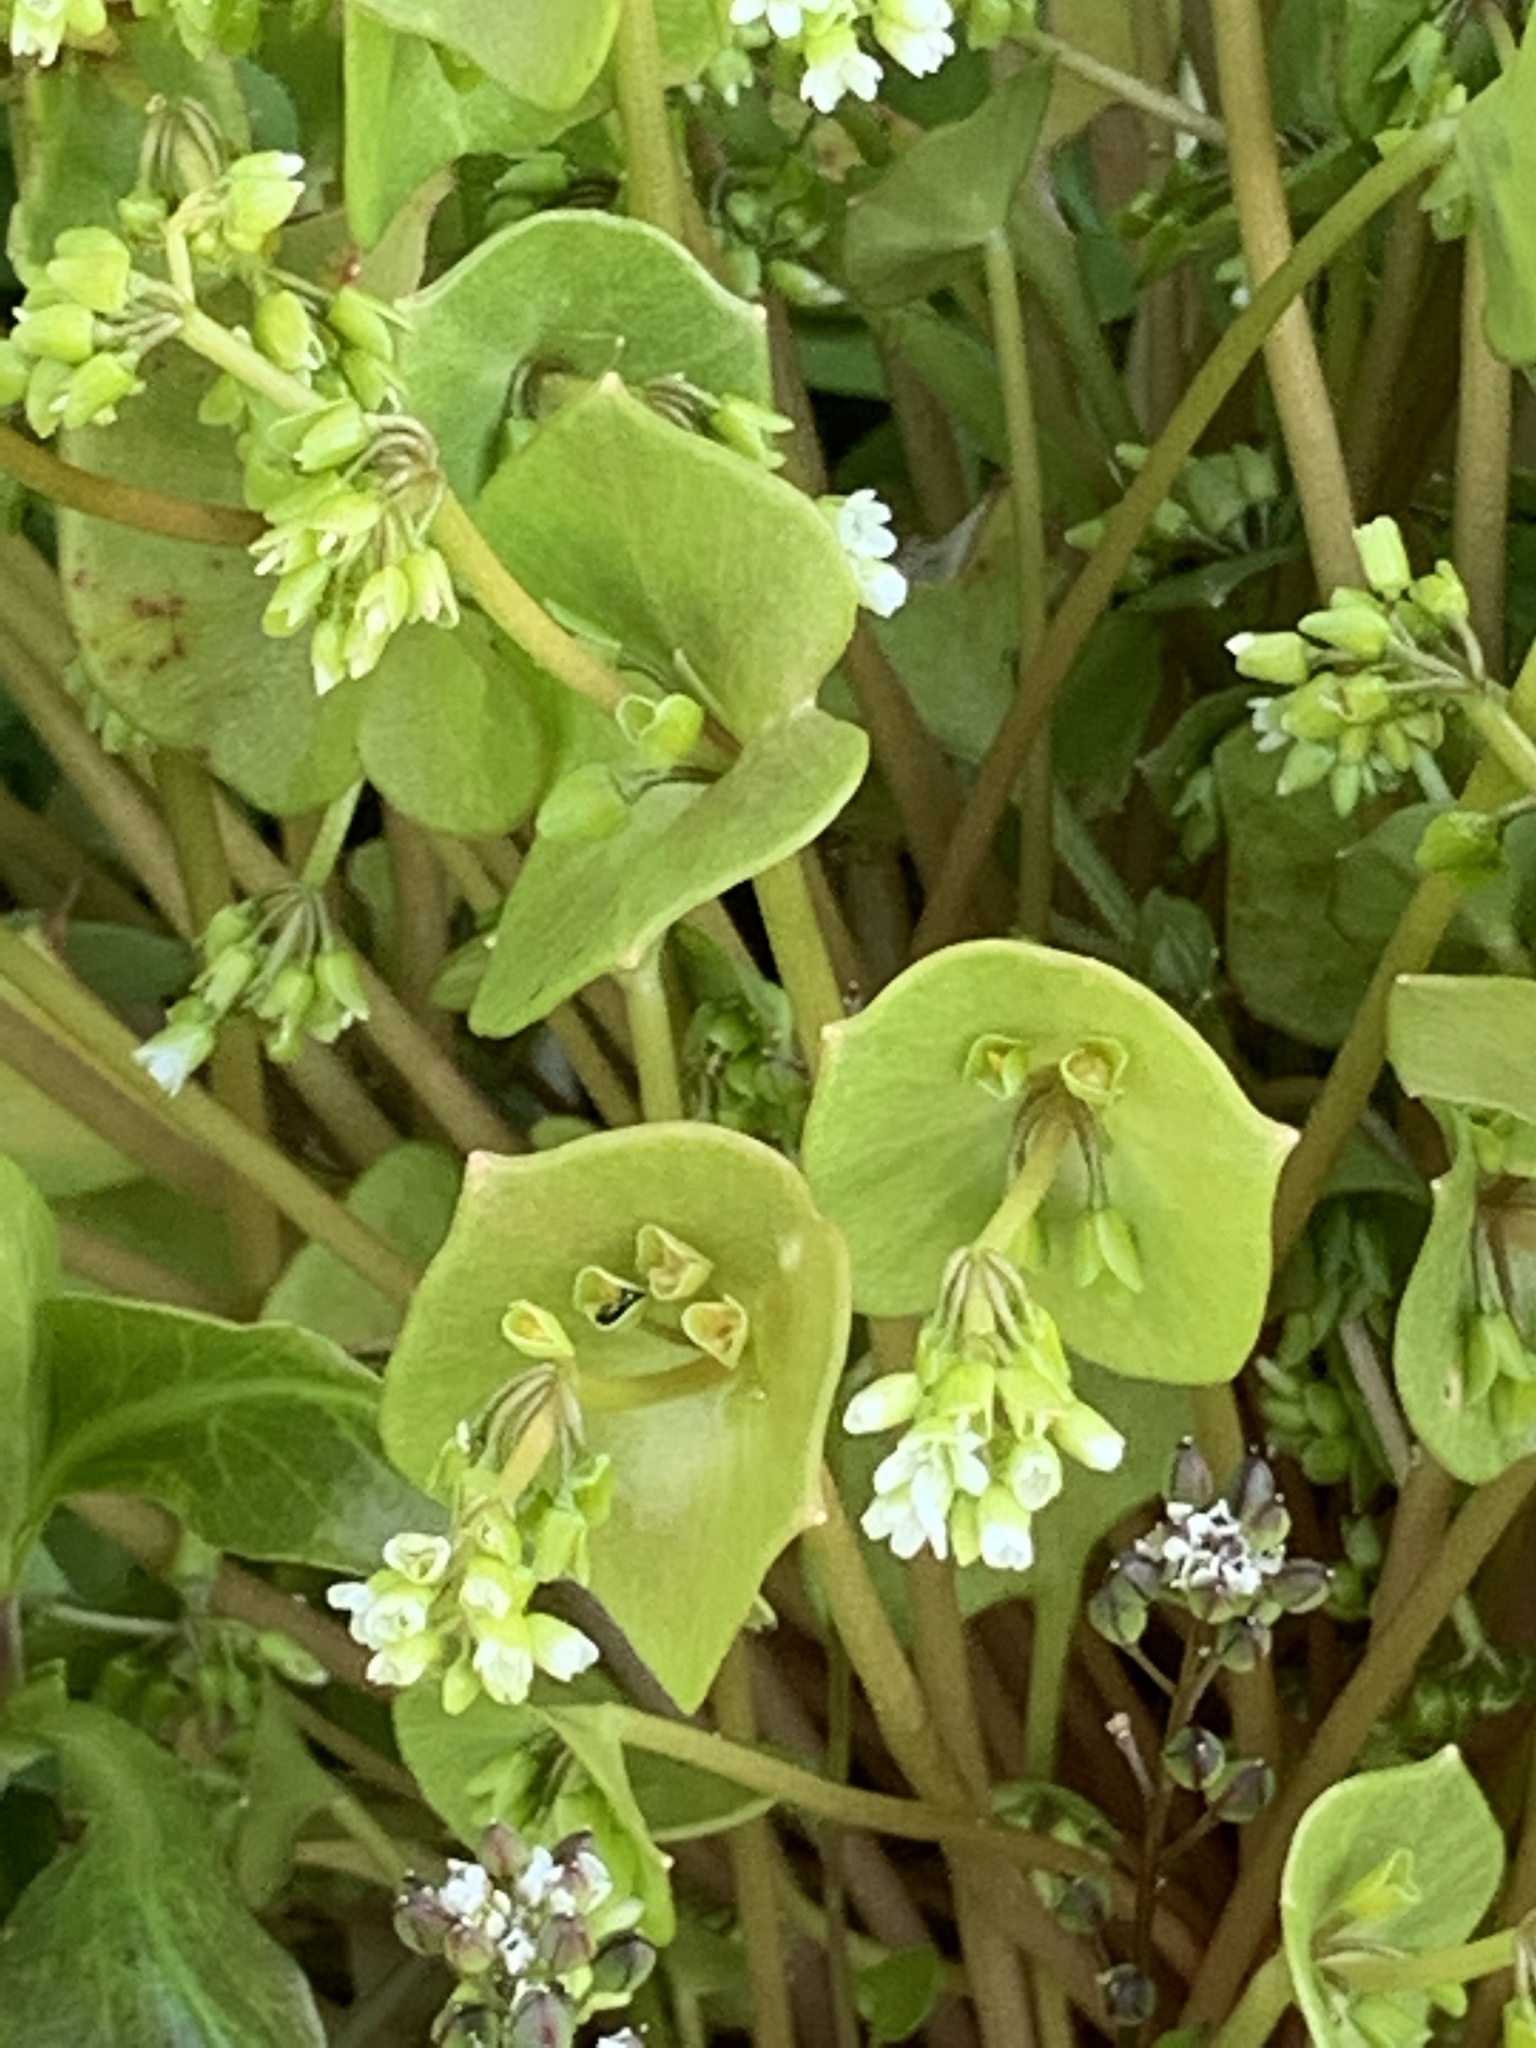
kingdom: Plantae
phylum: Tracheophyta
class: Magnoliopsida
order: Caryophyllales
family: Montiaceae
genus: Claytonia
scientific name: Claytonia perfoliata
